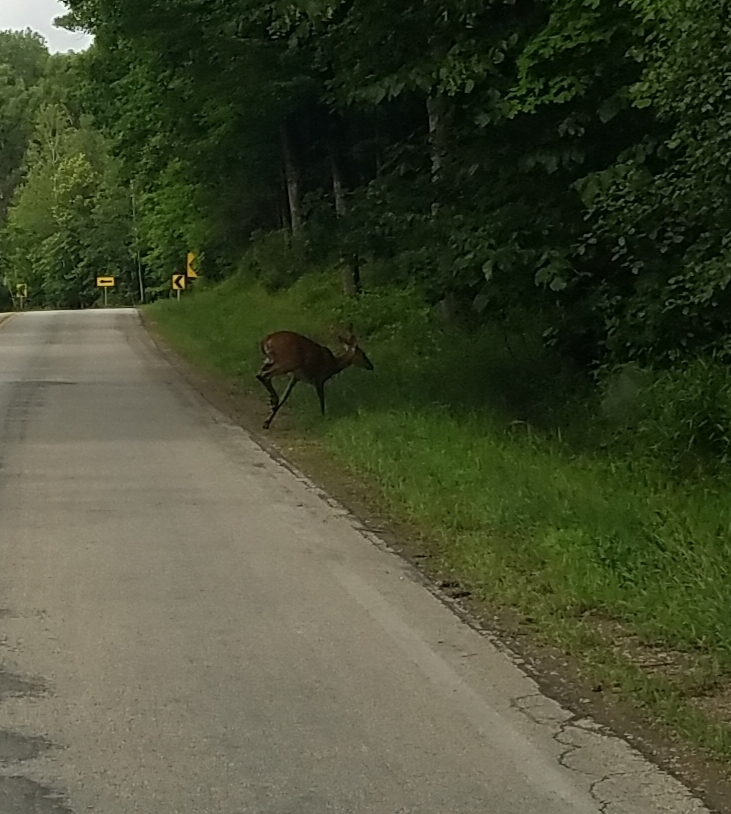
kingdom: Animalia
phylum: Chordata
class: Mammalia
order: Artiodactyla
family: Cervidae
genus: Odocoileus
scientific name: Odocoileus virginianus
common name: White-tailed deer
